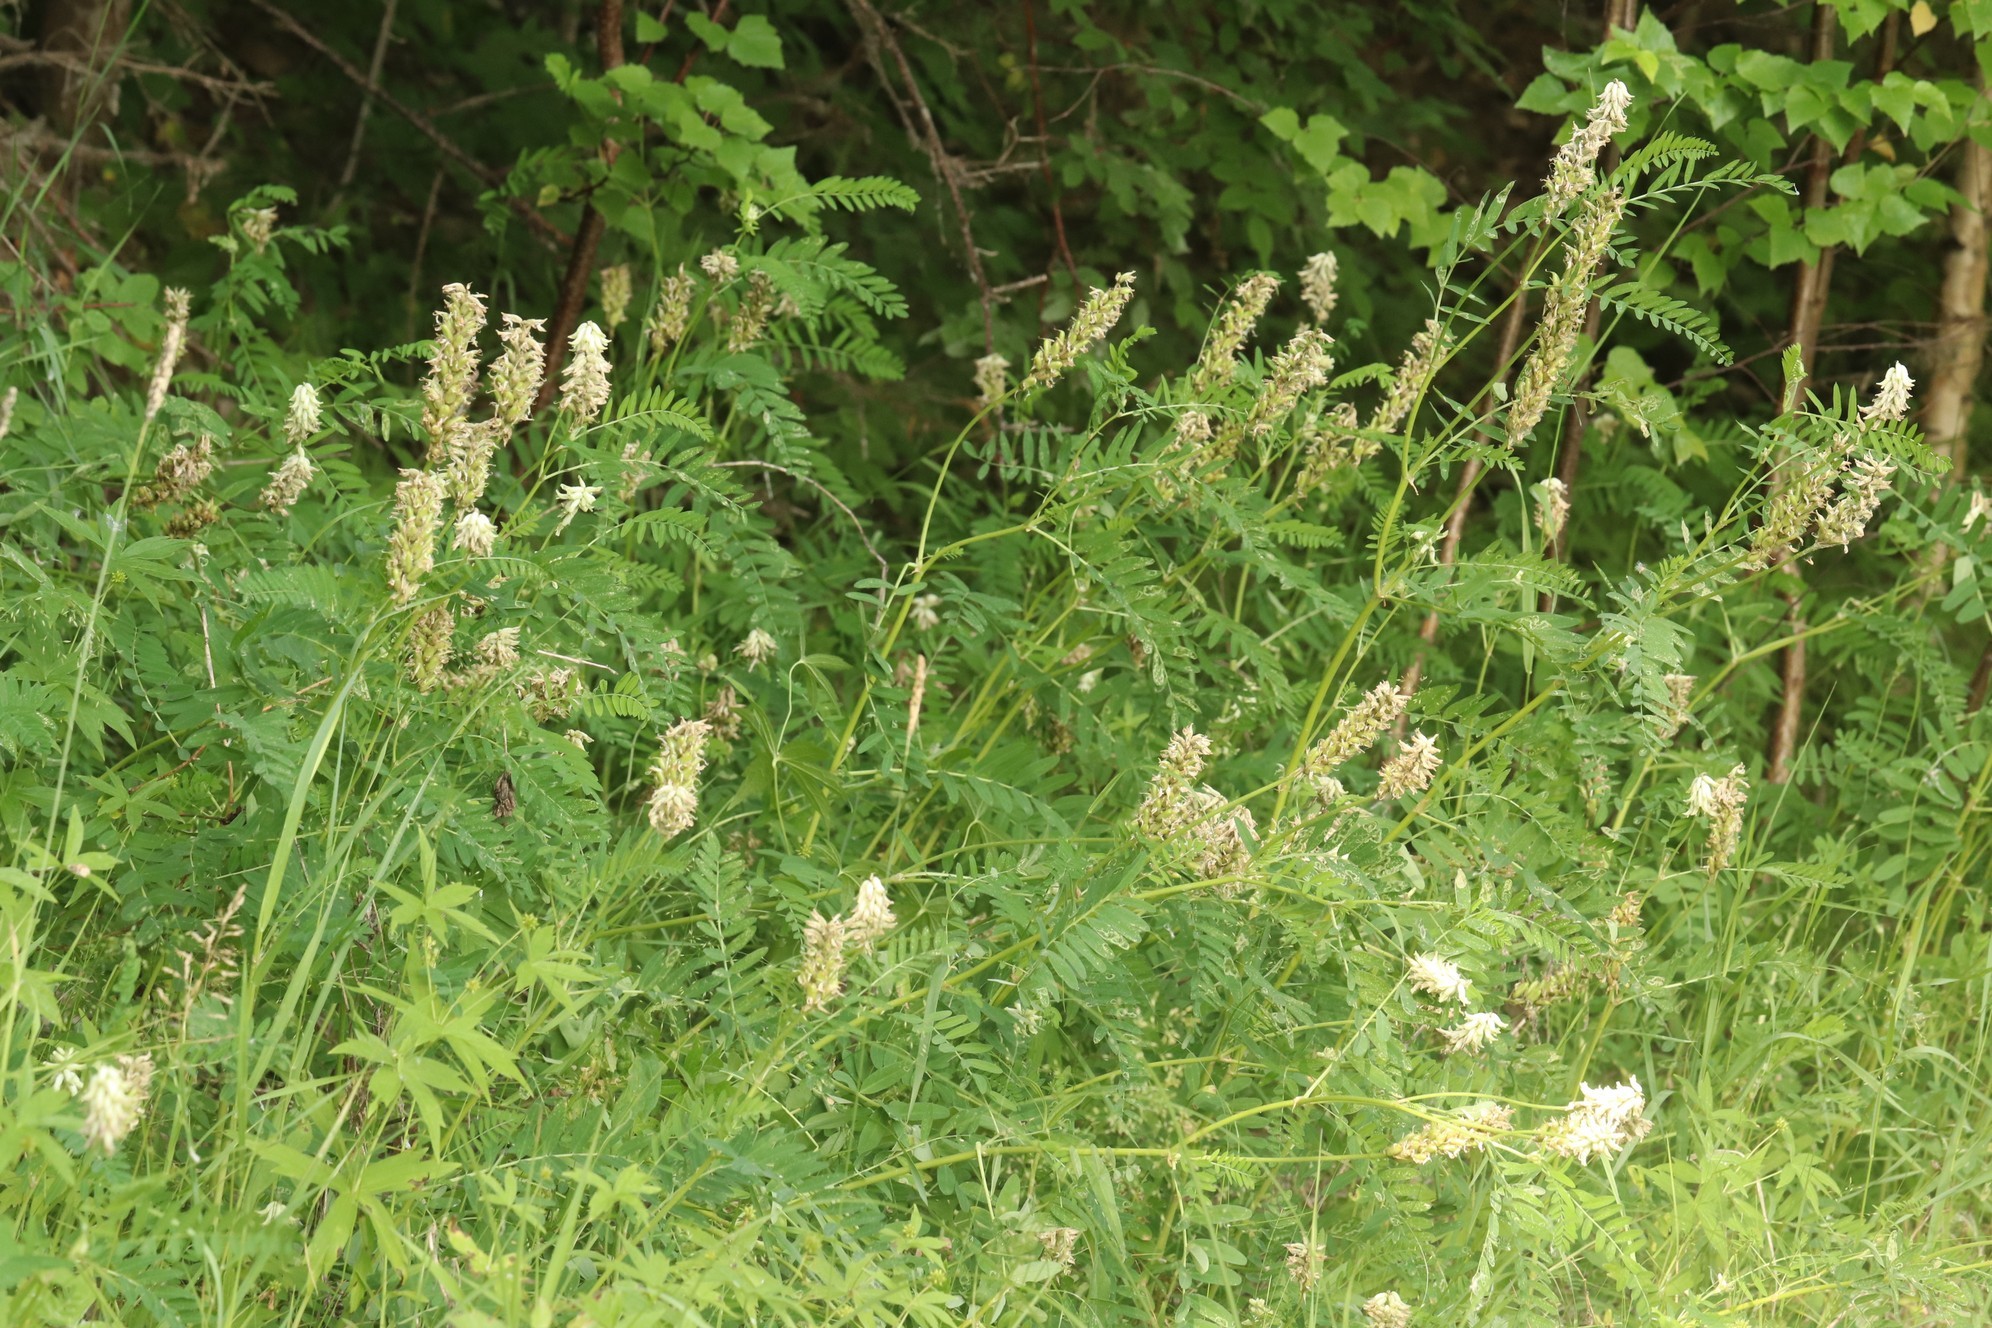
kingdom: Plantae
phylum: Tracheophyta
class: Magnoliopsida
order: Fabales
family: Fabaceae
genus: Astragalus
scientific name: Astragalus uliginosus
